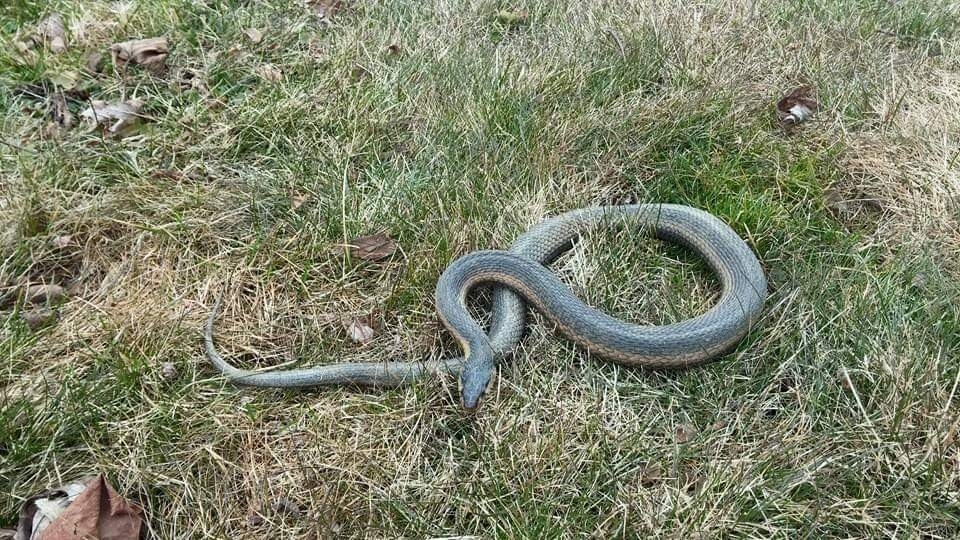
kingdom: Animalia
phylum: Chordata
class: Squamata
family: Colubridae
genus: Thamnophis
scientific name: Thamnophis sirtalis
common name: Common garter snake
